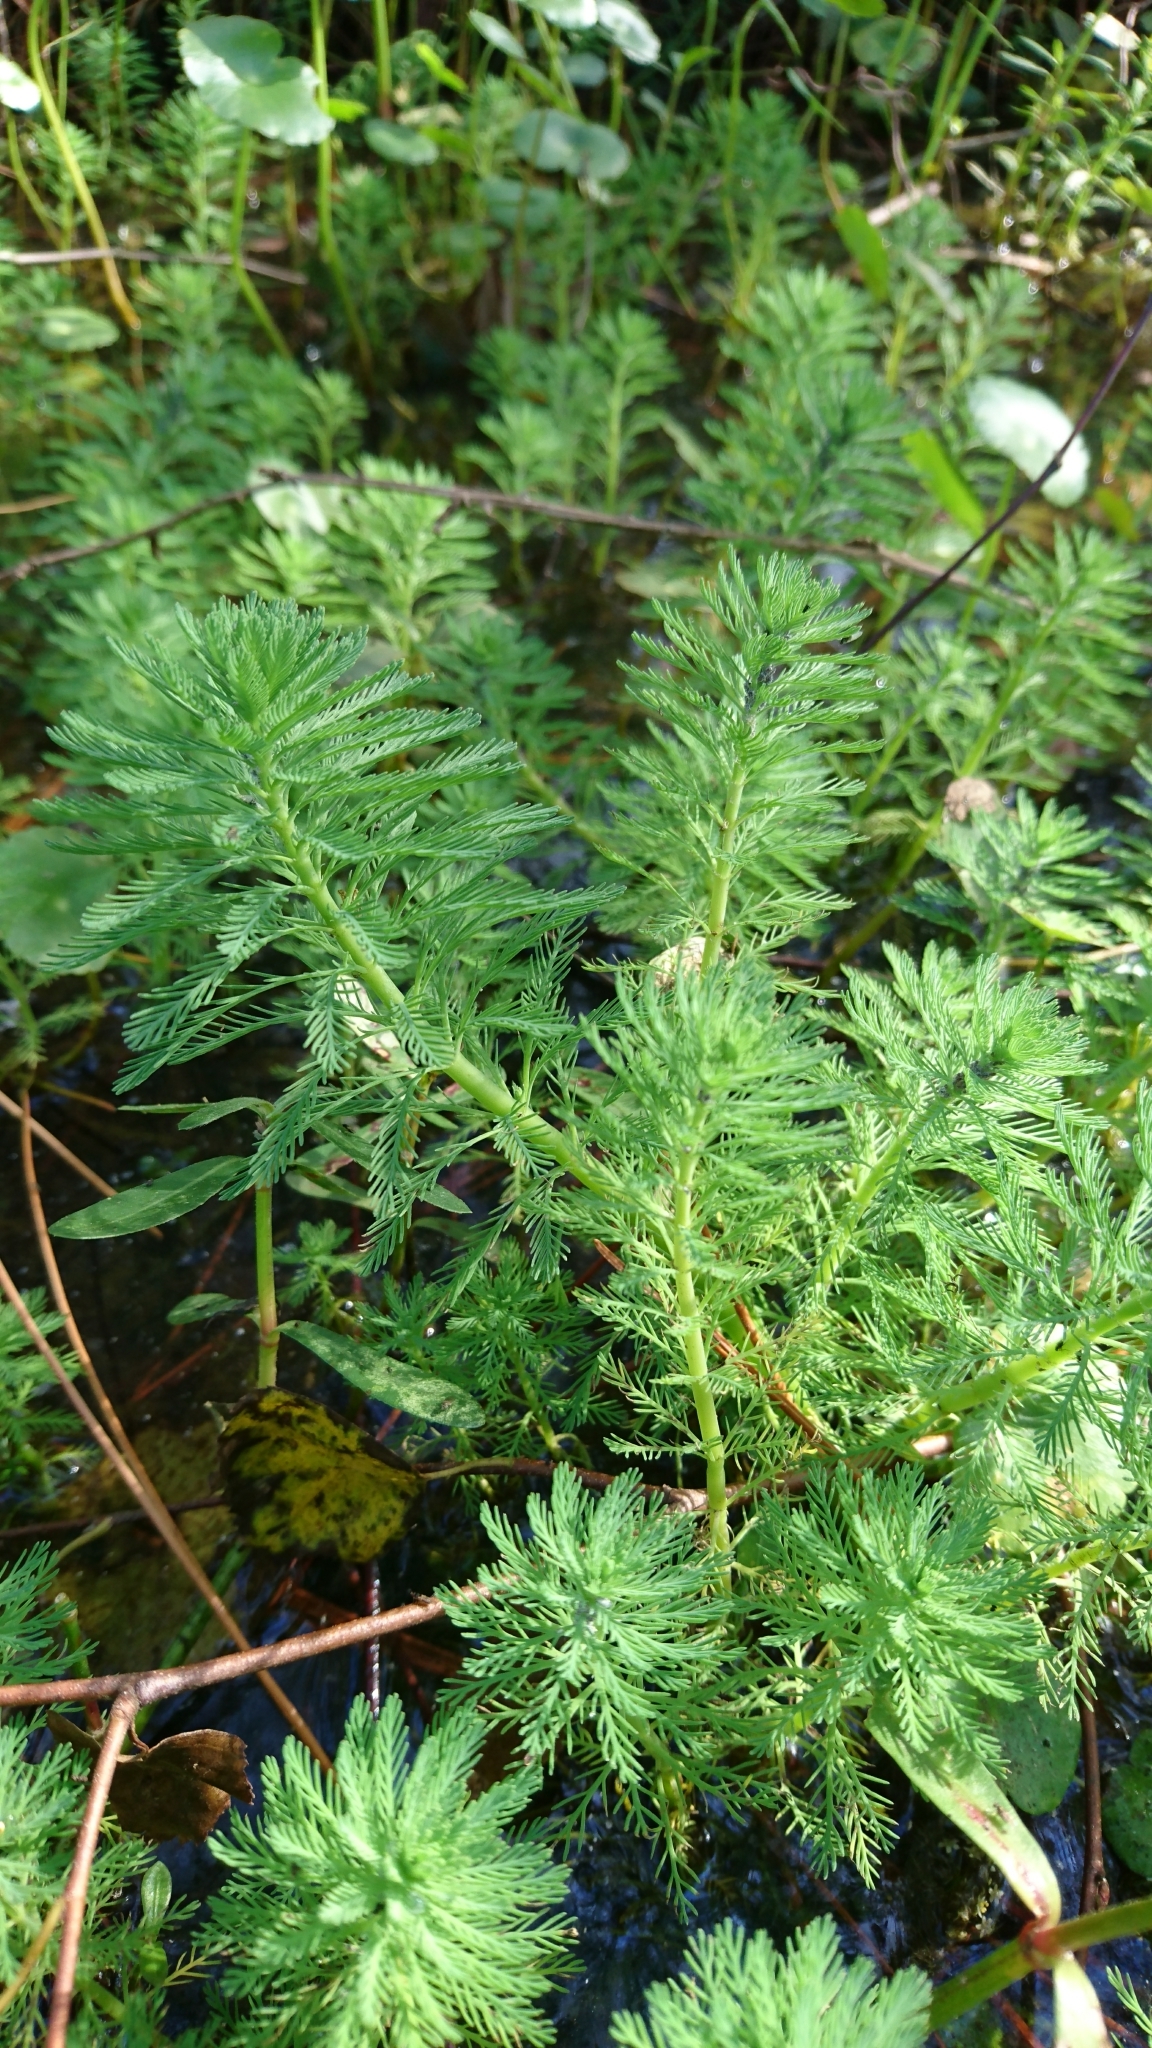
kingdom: Plantae
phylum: Tracheophyta
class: Magnoliopsida
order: Saxifragales
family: Haloragaceae
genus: Myriophyllum
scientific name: Myriophyllum aquaticum
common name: Parrot's feather
